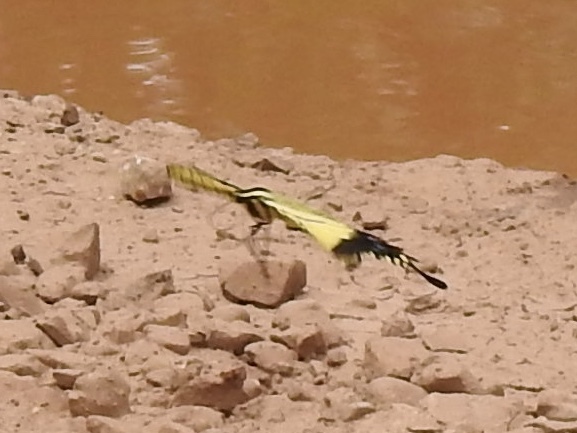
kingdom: Animalia
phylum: Arthropoda
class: Insecta
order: Lepidoptera
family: Papilionidae
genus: Papilio
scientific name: Papilio multicaudata
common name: Two-tailed tiger swallowtail
